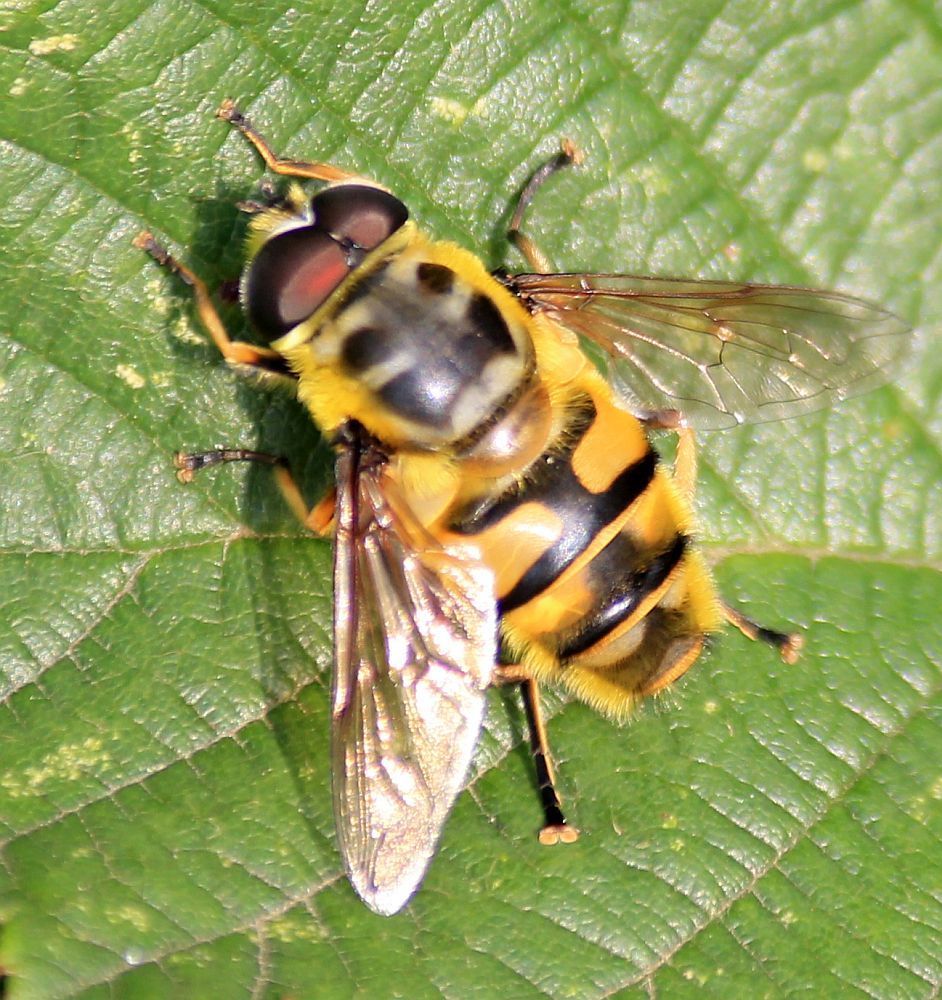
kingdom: Animalia
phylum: Arthropoda
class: Insecta
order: Diptera
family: Syrphidae
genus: Myathropa
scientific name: Myathropa florea
